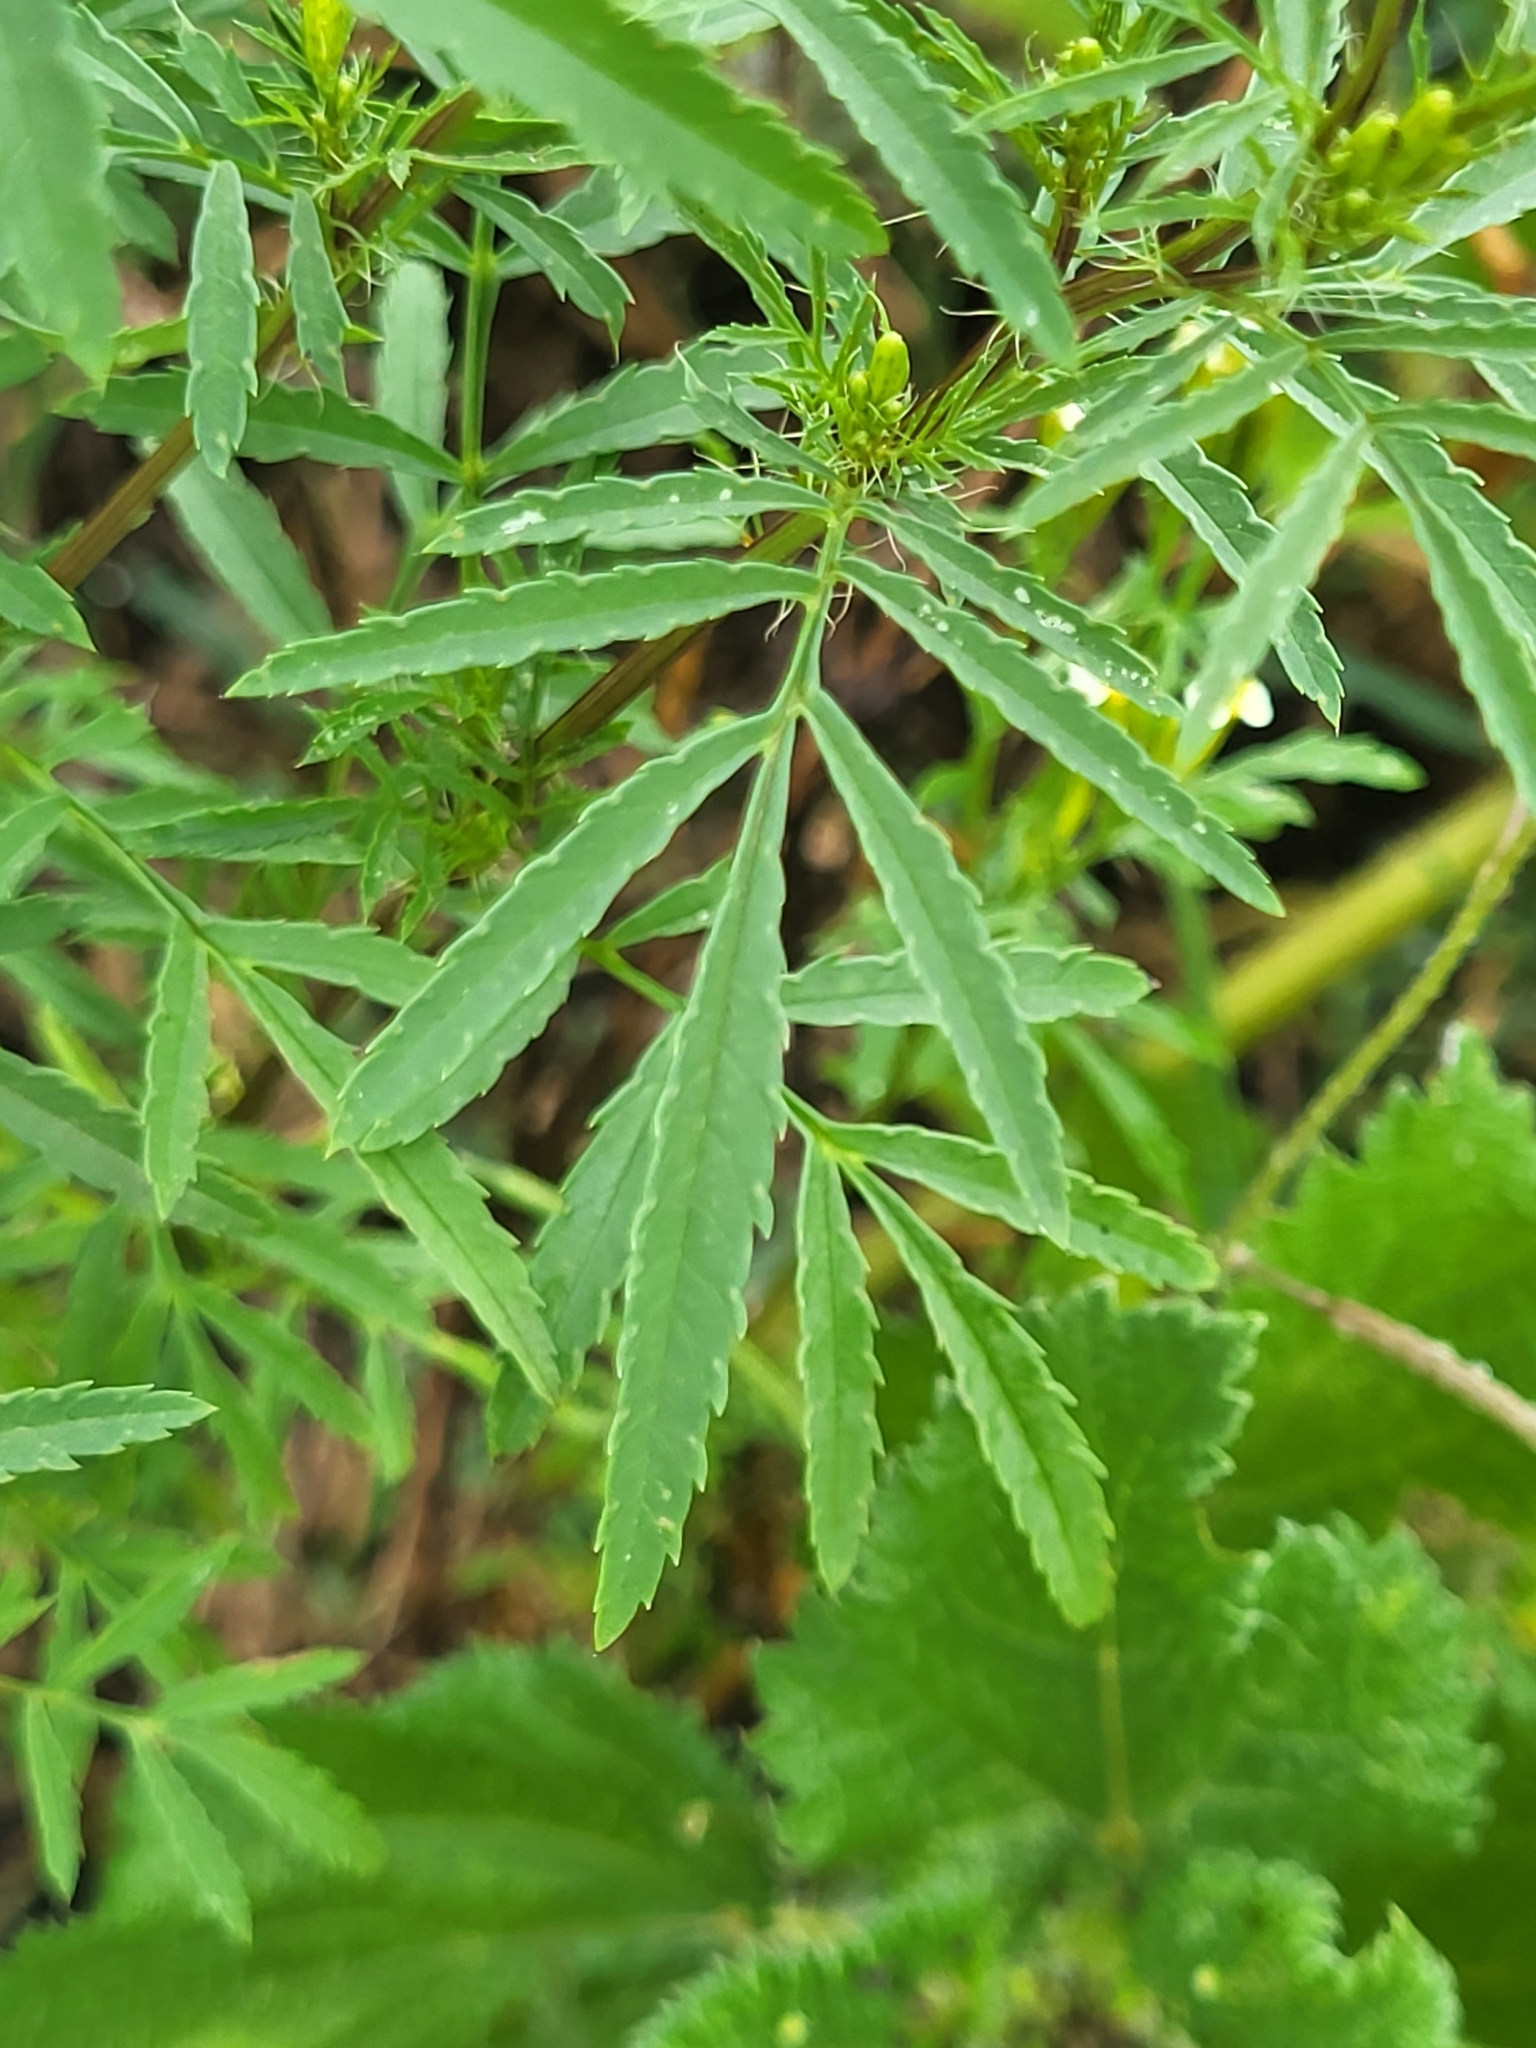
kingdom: Plantae
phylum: Tracheophyta
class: Magnoliopsida
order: Asterales
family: Asteraceae
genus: Tagetes
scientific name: Tagetes minuta
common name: Muster john henry
